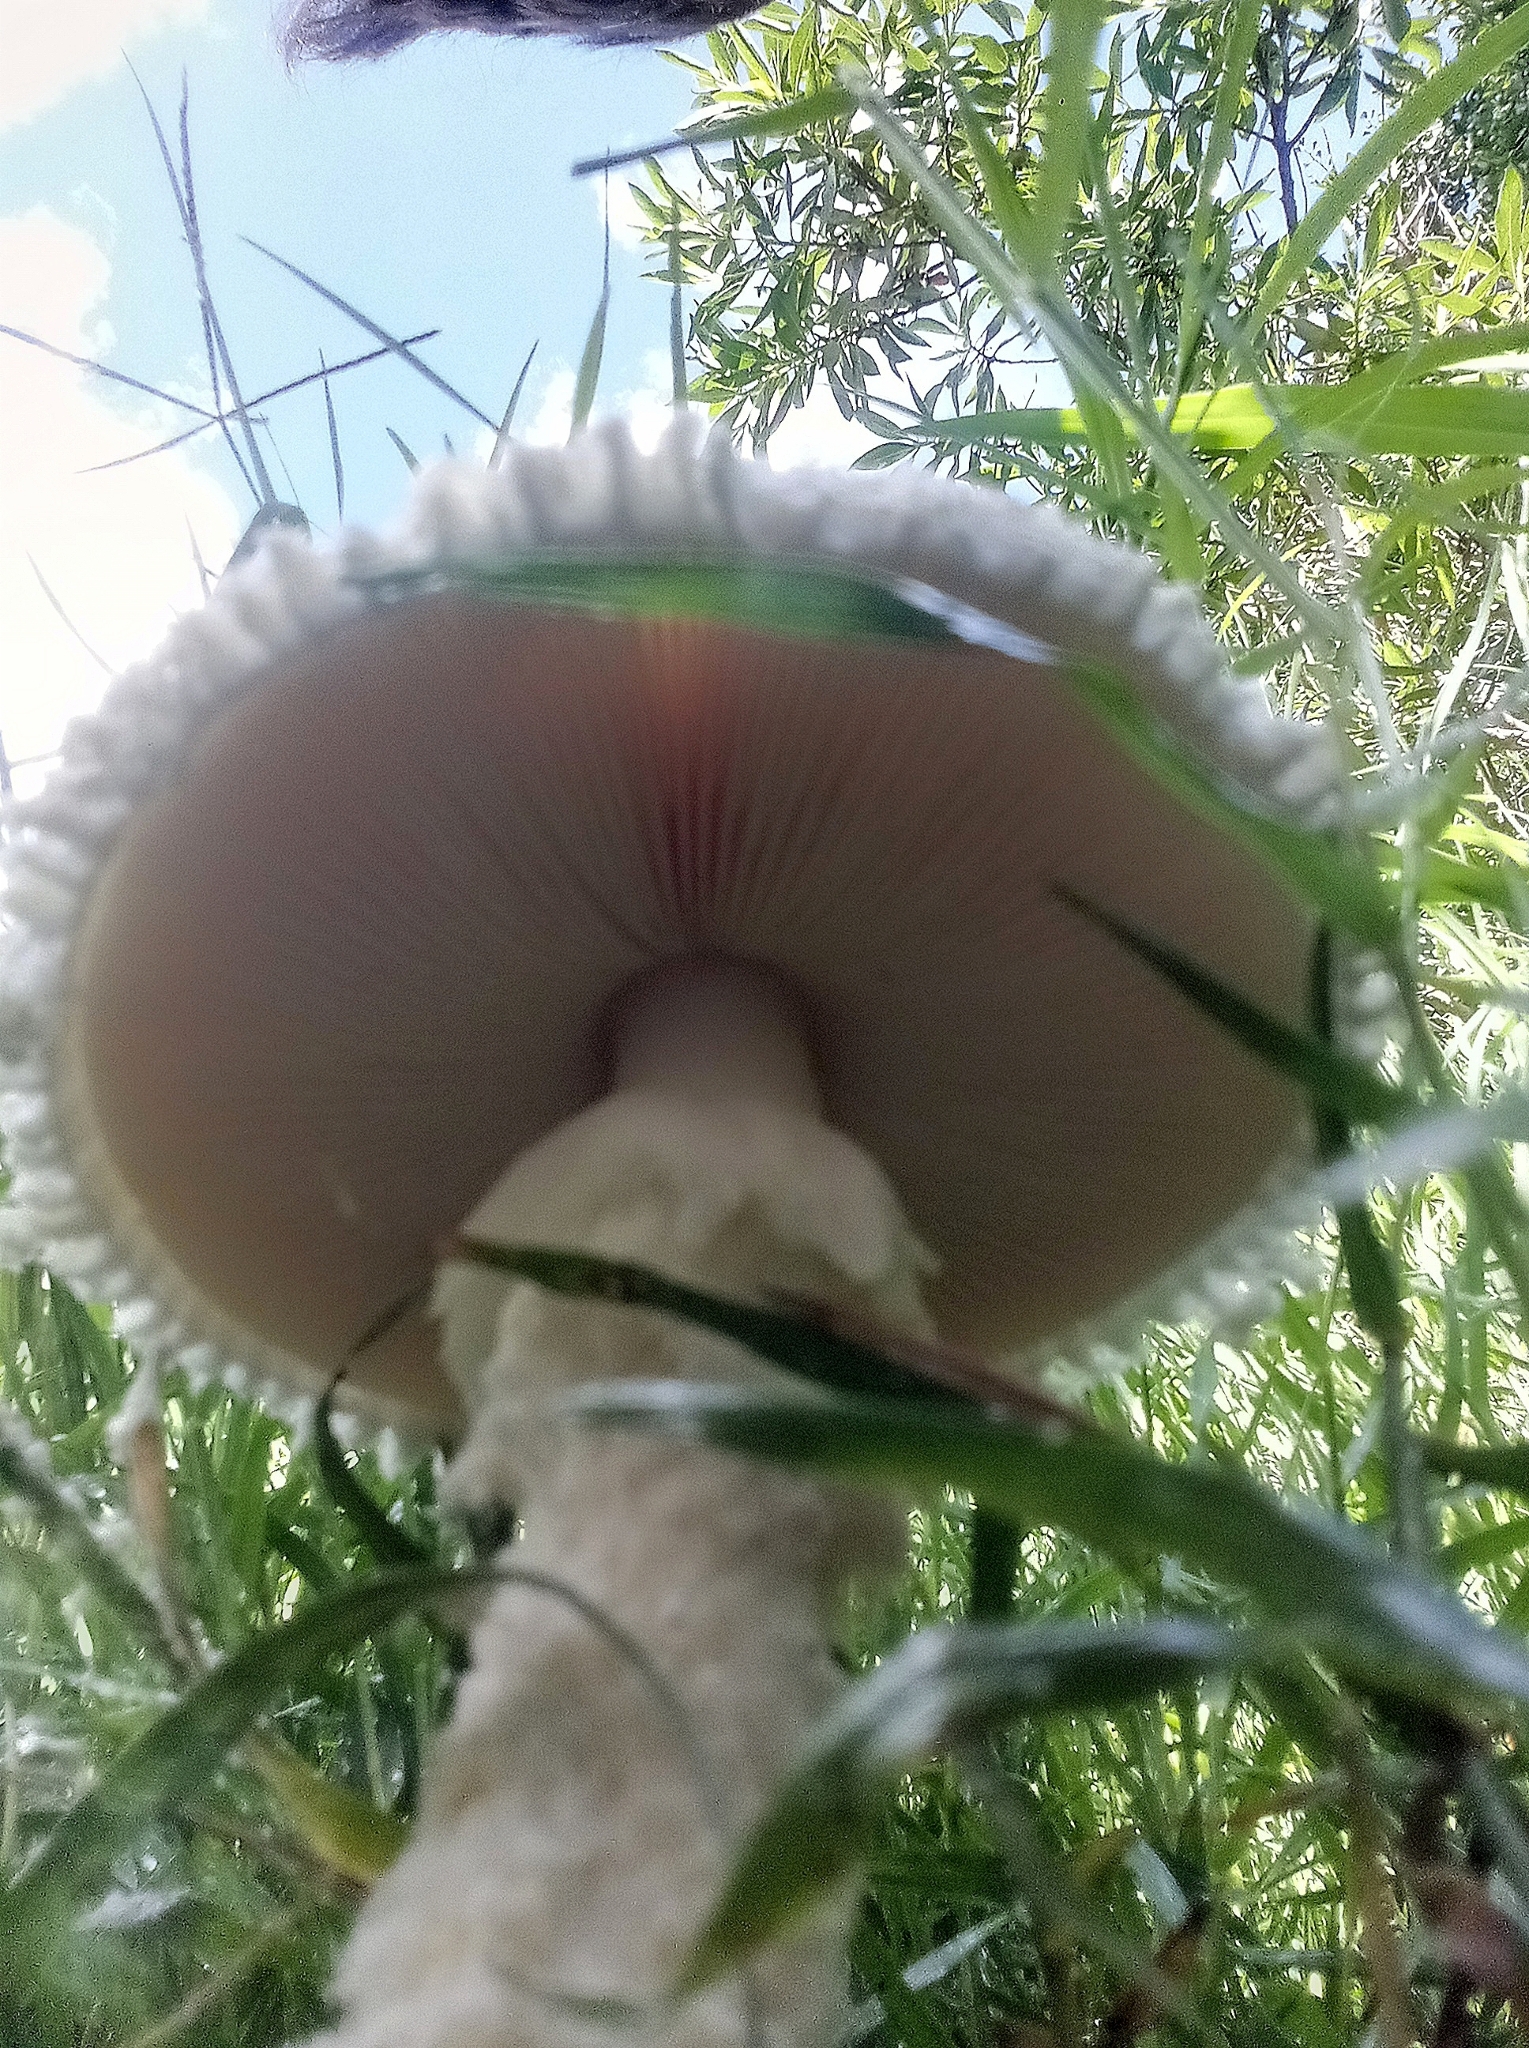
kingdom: Fungi
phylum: Basidiomycota
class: Agaricomycetes
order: Agaricales
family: Amanitaceae
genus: Aspidella
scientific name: Aspidella foetens
